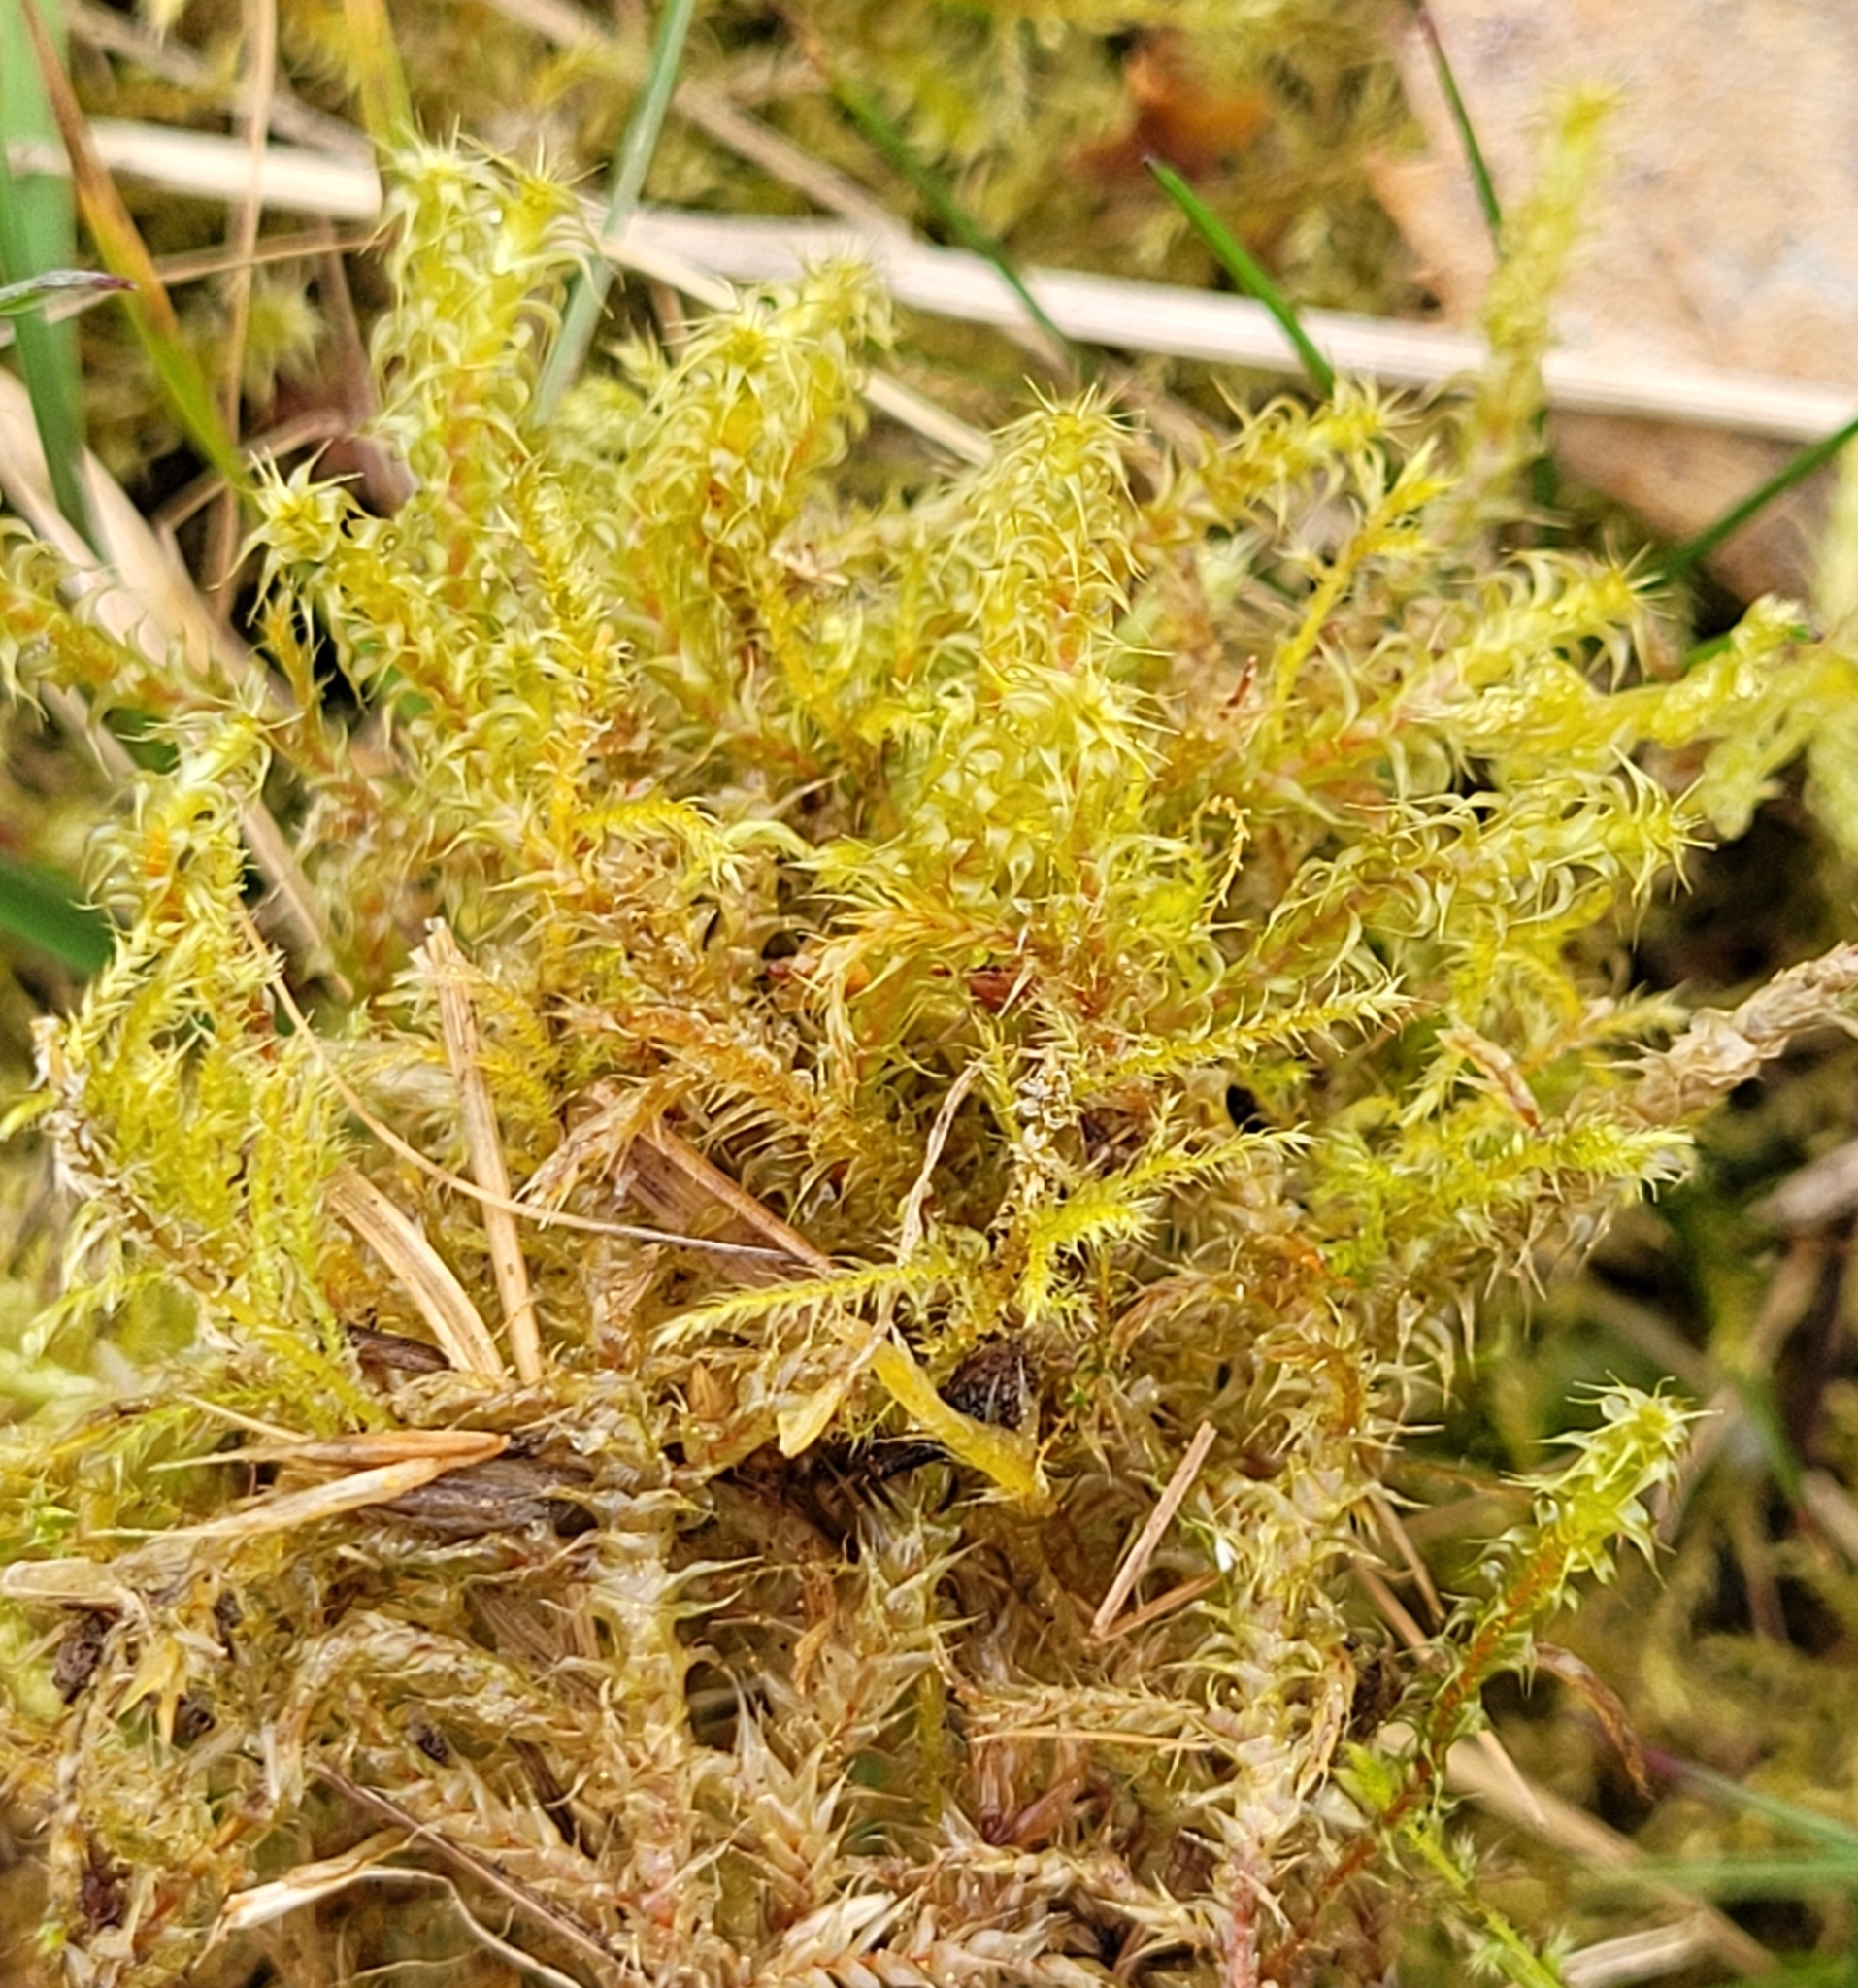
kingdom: Plantae
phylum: Bryophyta
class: Bryopsida
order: Hypnales
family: Hylocomiaceae
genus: Rhytidiadelphus
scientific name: Rhytidiadelphus squarrosus
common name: Springy turf-moss
